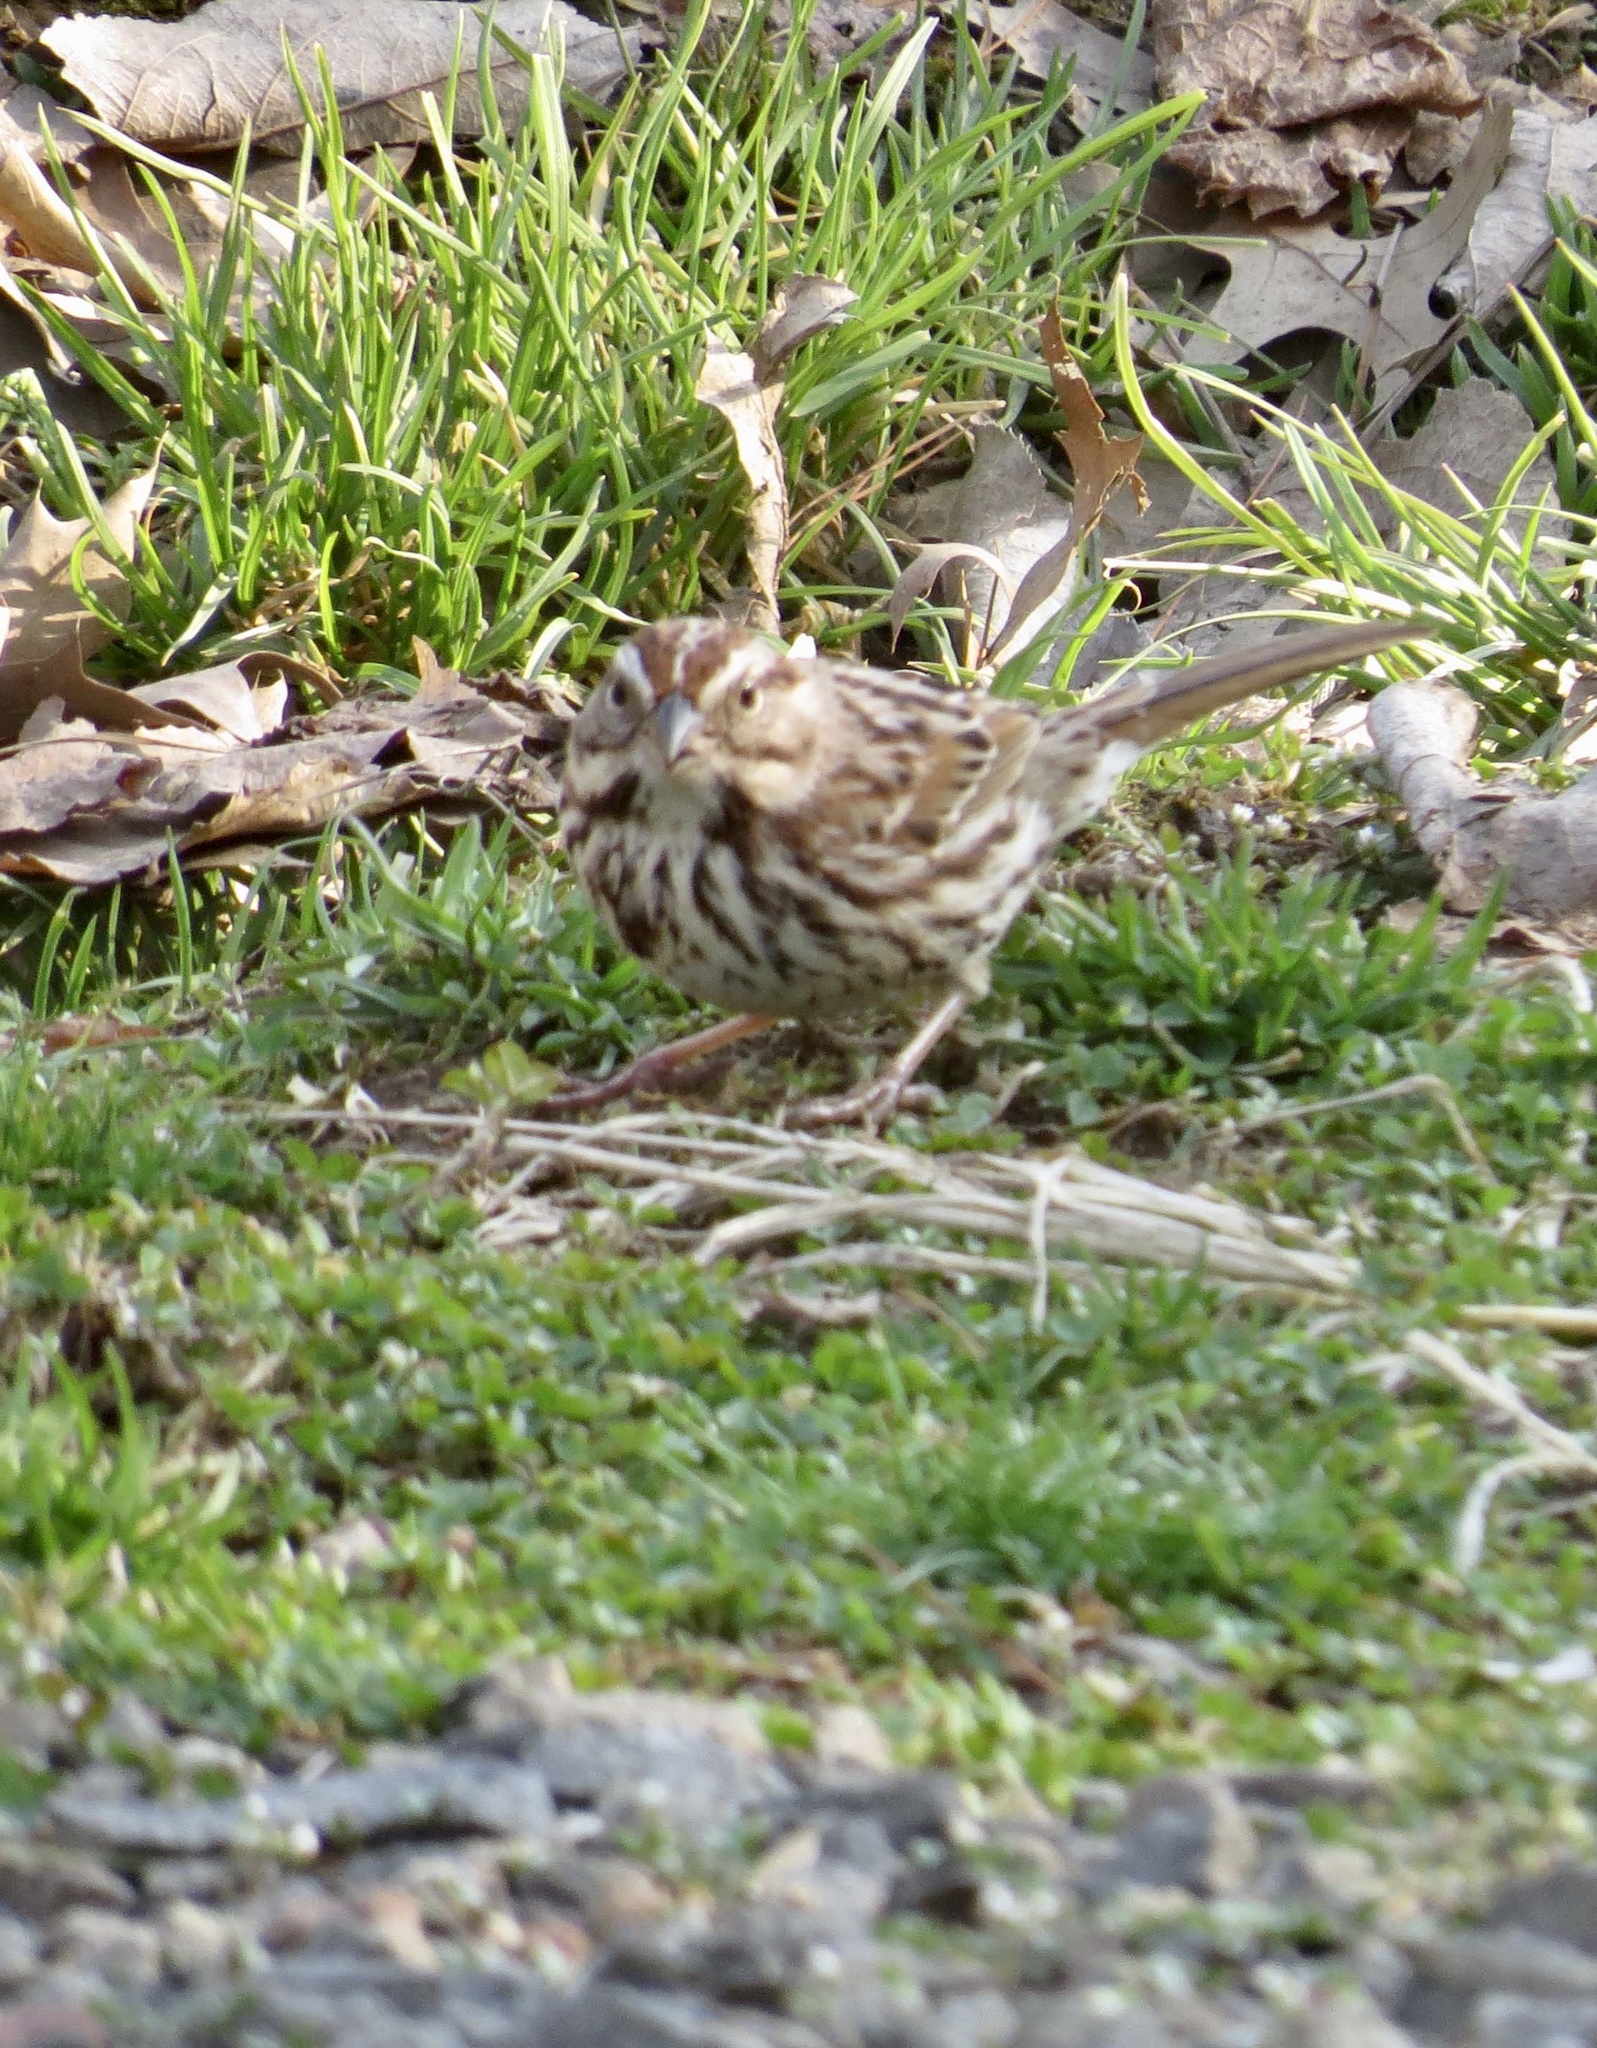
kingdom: Animalia
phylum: Chordata
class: Aves
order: Passeriformes
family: Passerellidae
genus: Melospiza
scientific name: Melospiza melodia
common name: Song sparrow
